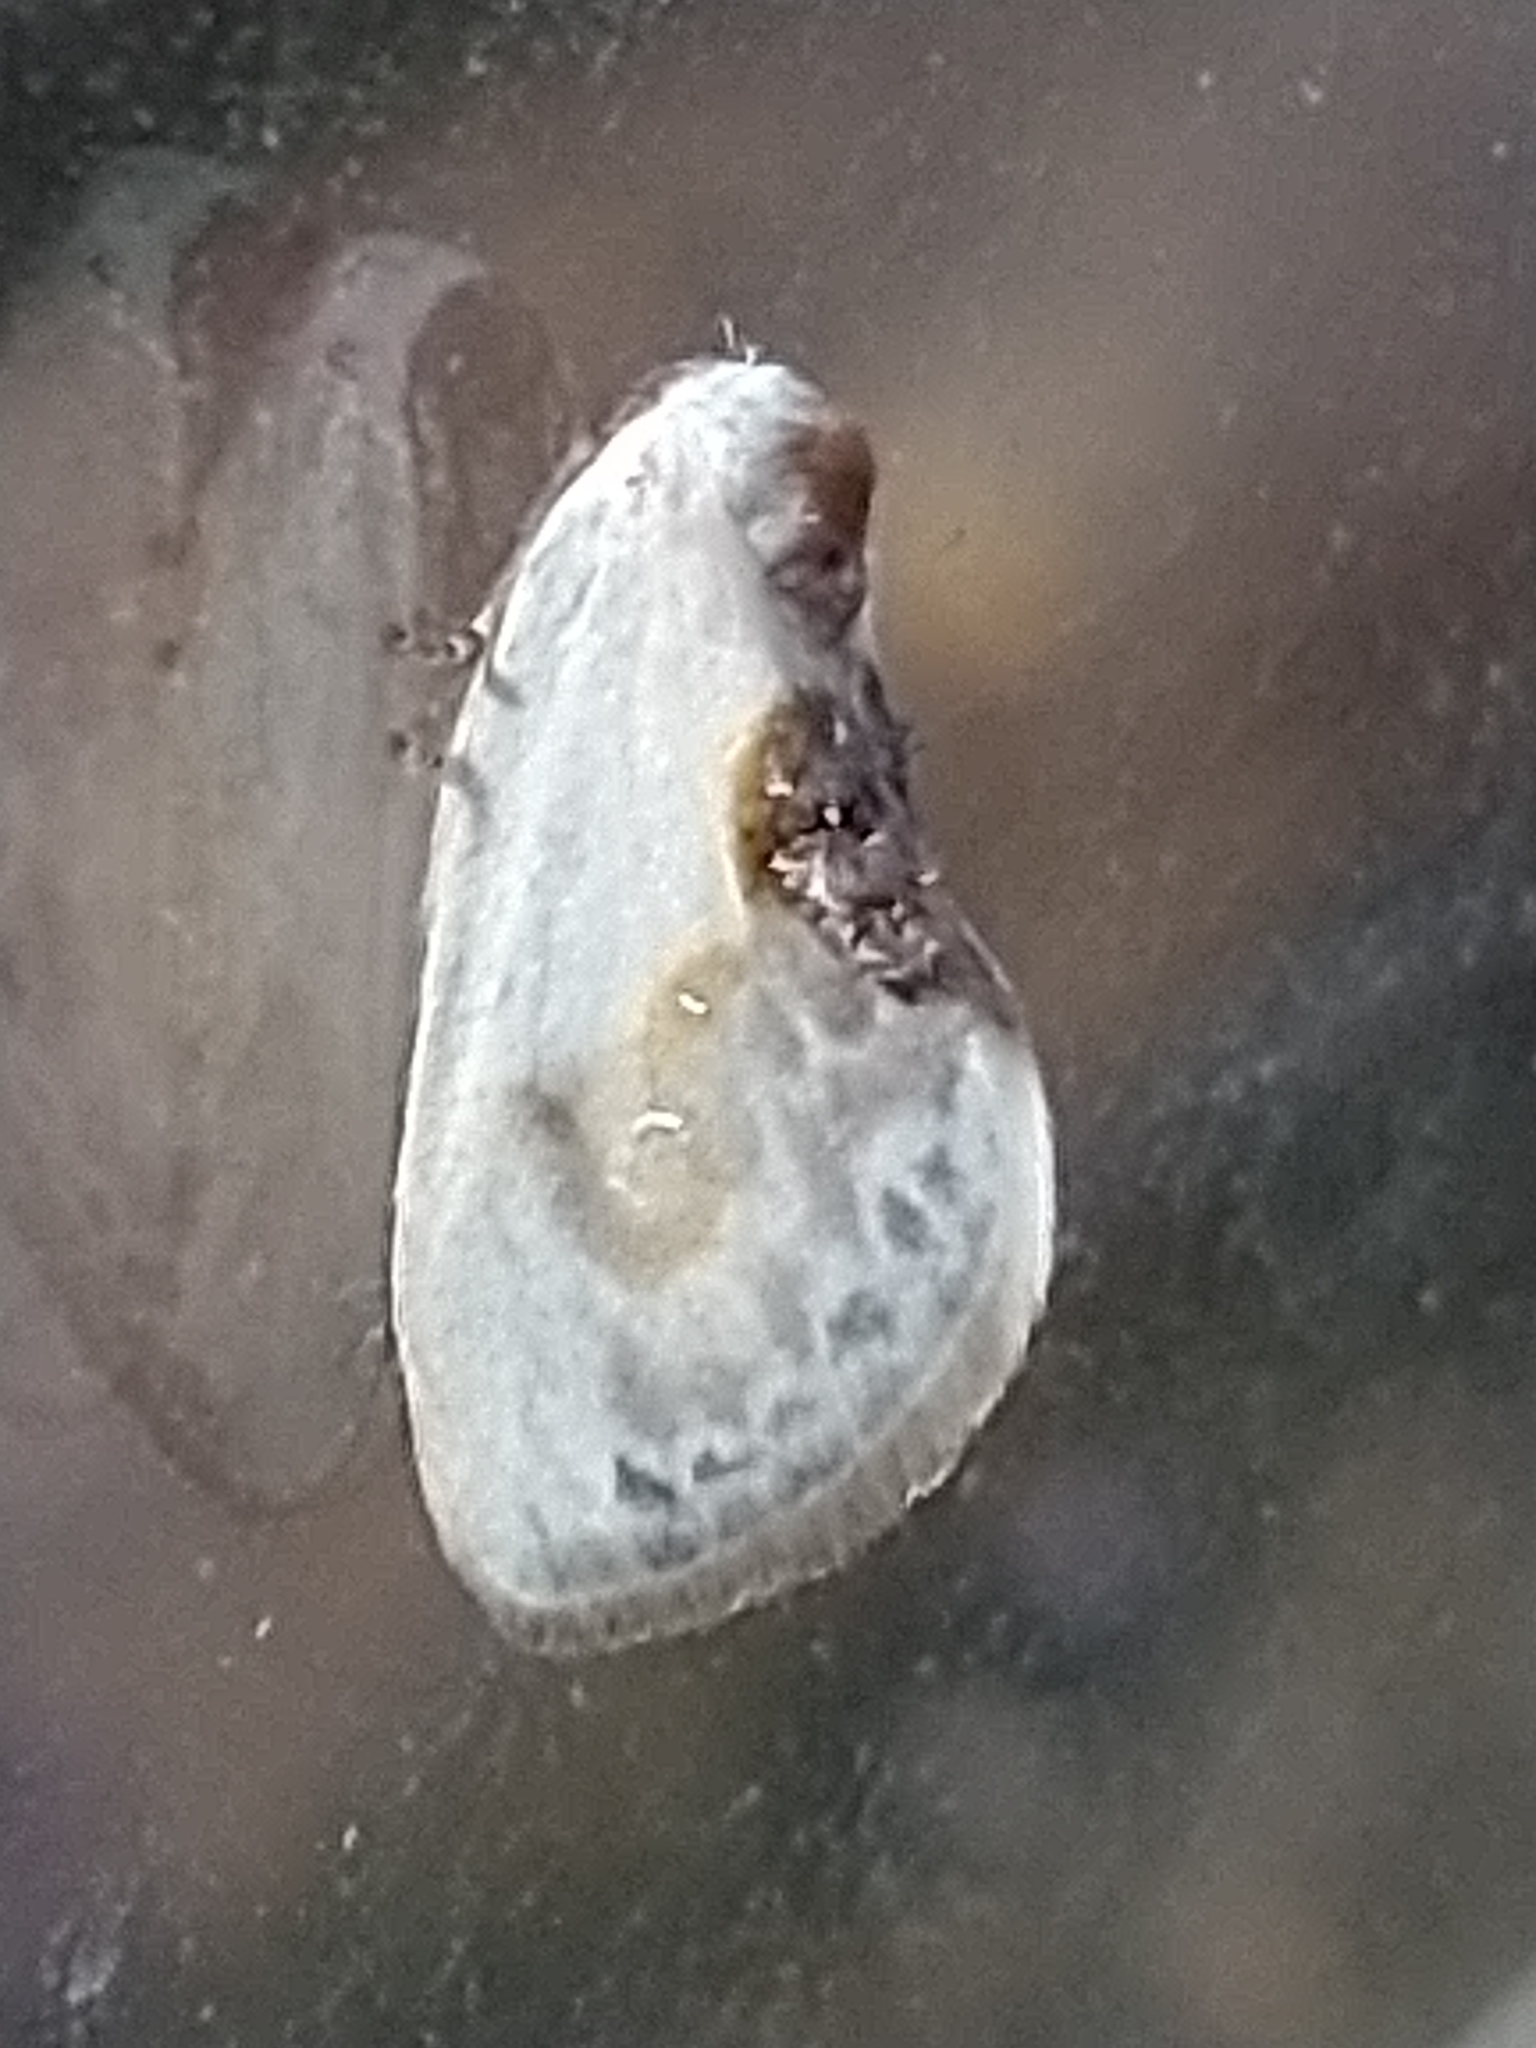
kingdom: Animalia
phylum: Arthropoda
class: Insecta
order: Lepidoptera
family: Drepanidae
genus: Cilix
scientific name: Cilix glaucata
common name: Chinese character
